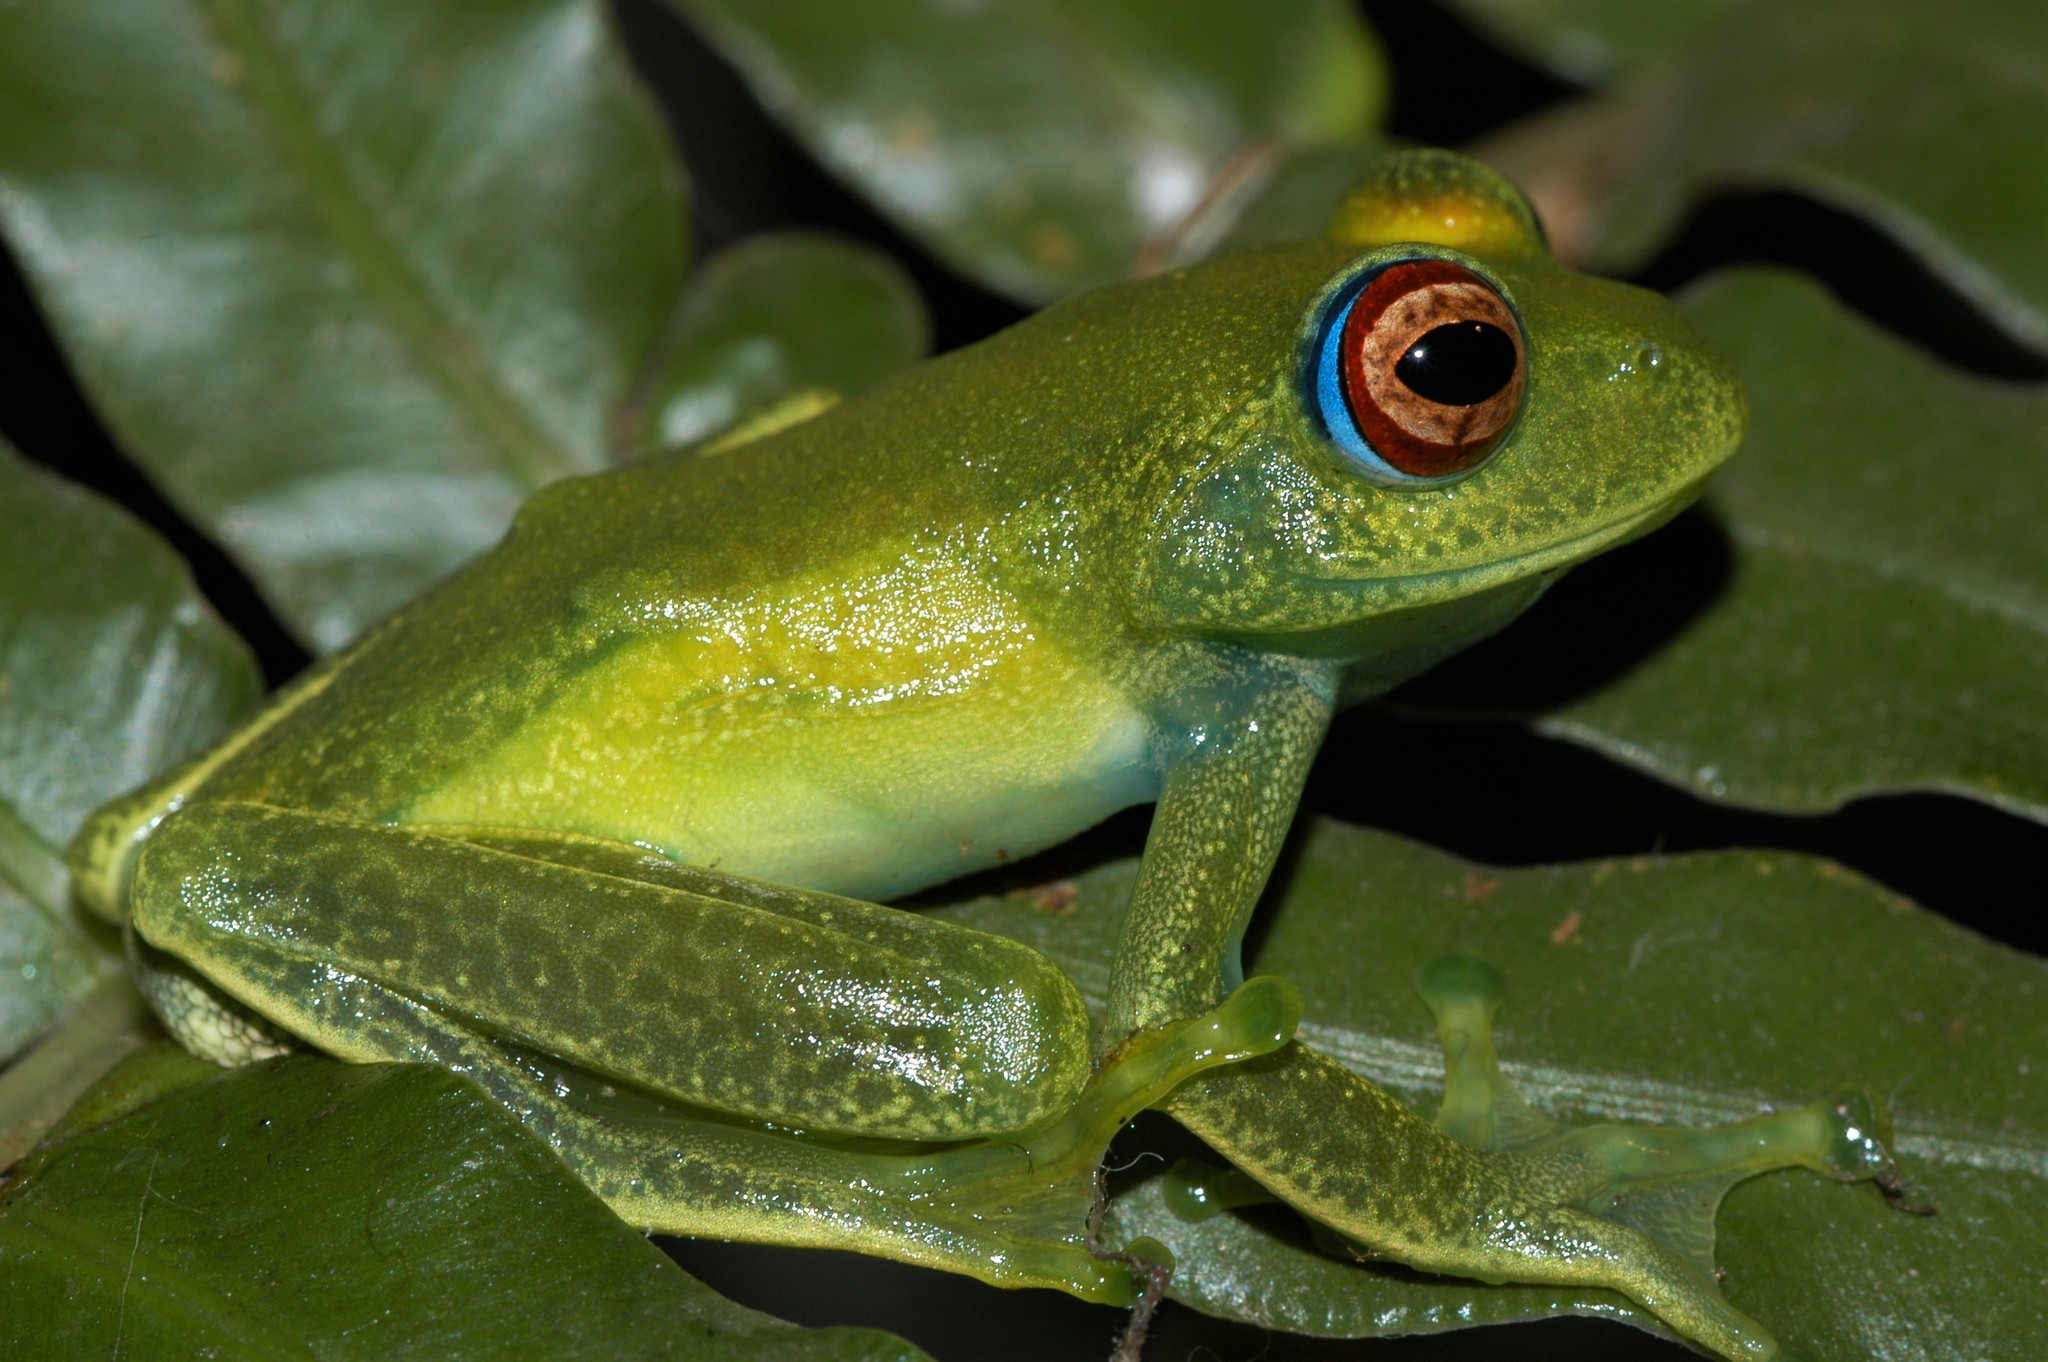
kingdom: Animalia
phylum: Chordata
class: Amphibia
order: Anura
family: Mantellidae
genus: Boophis
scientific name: Boophis luteus
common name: Ankafana bright-eyed frog
